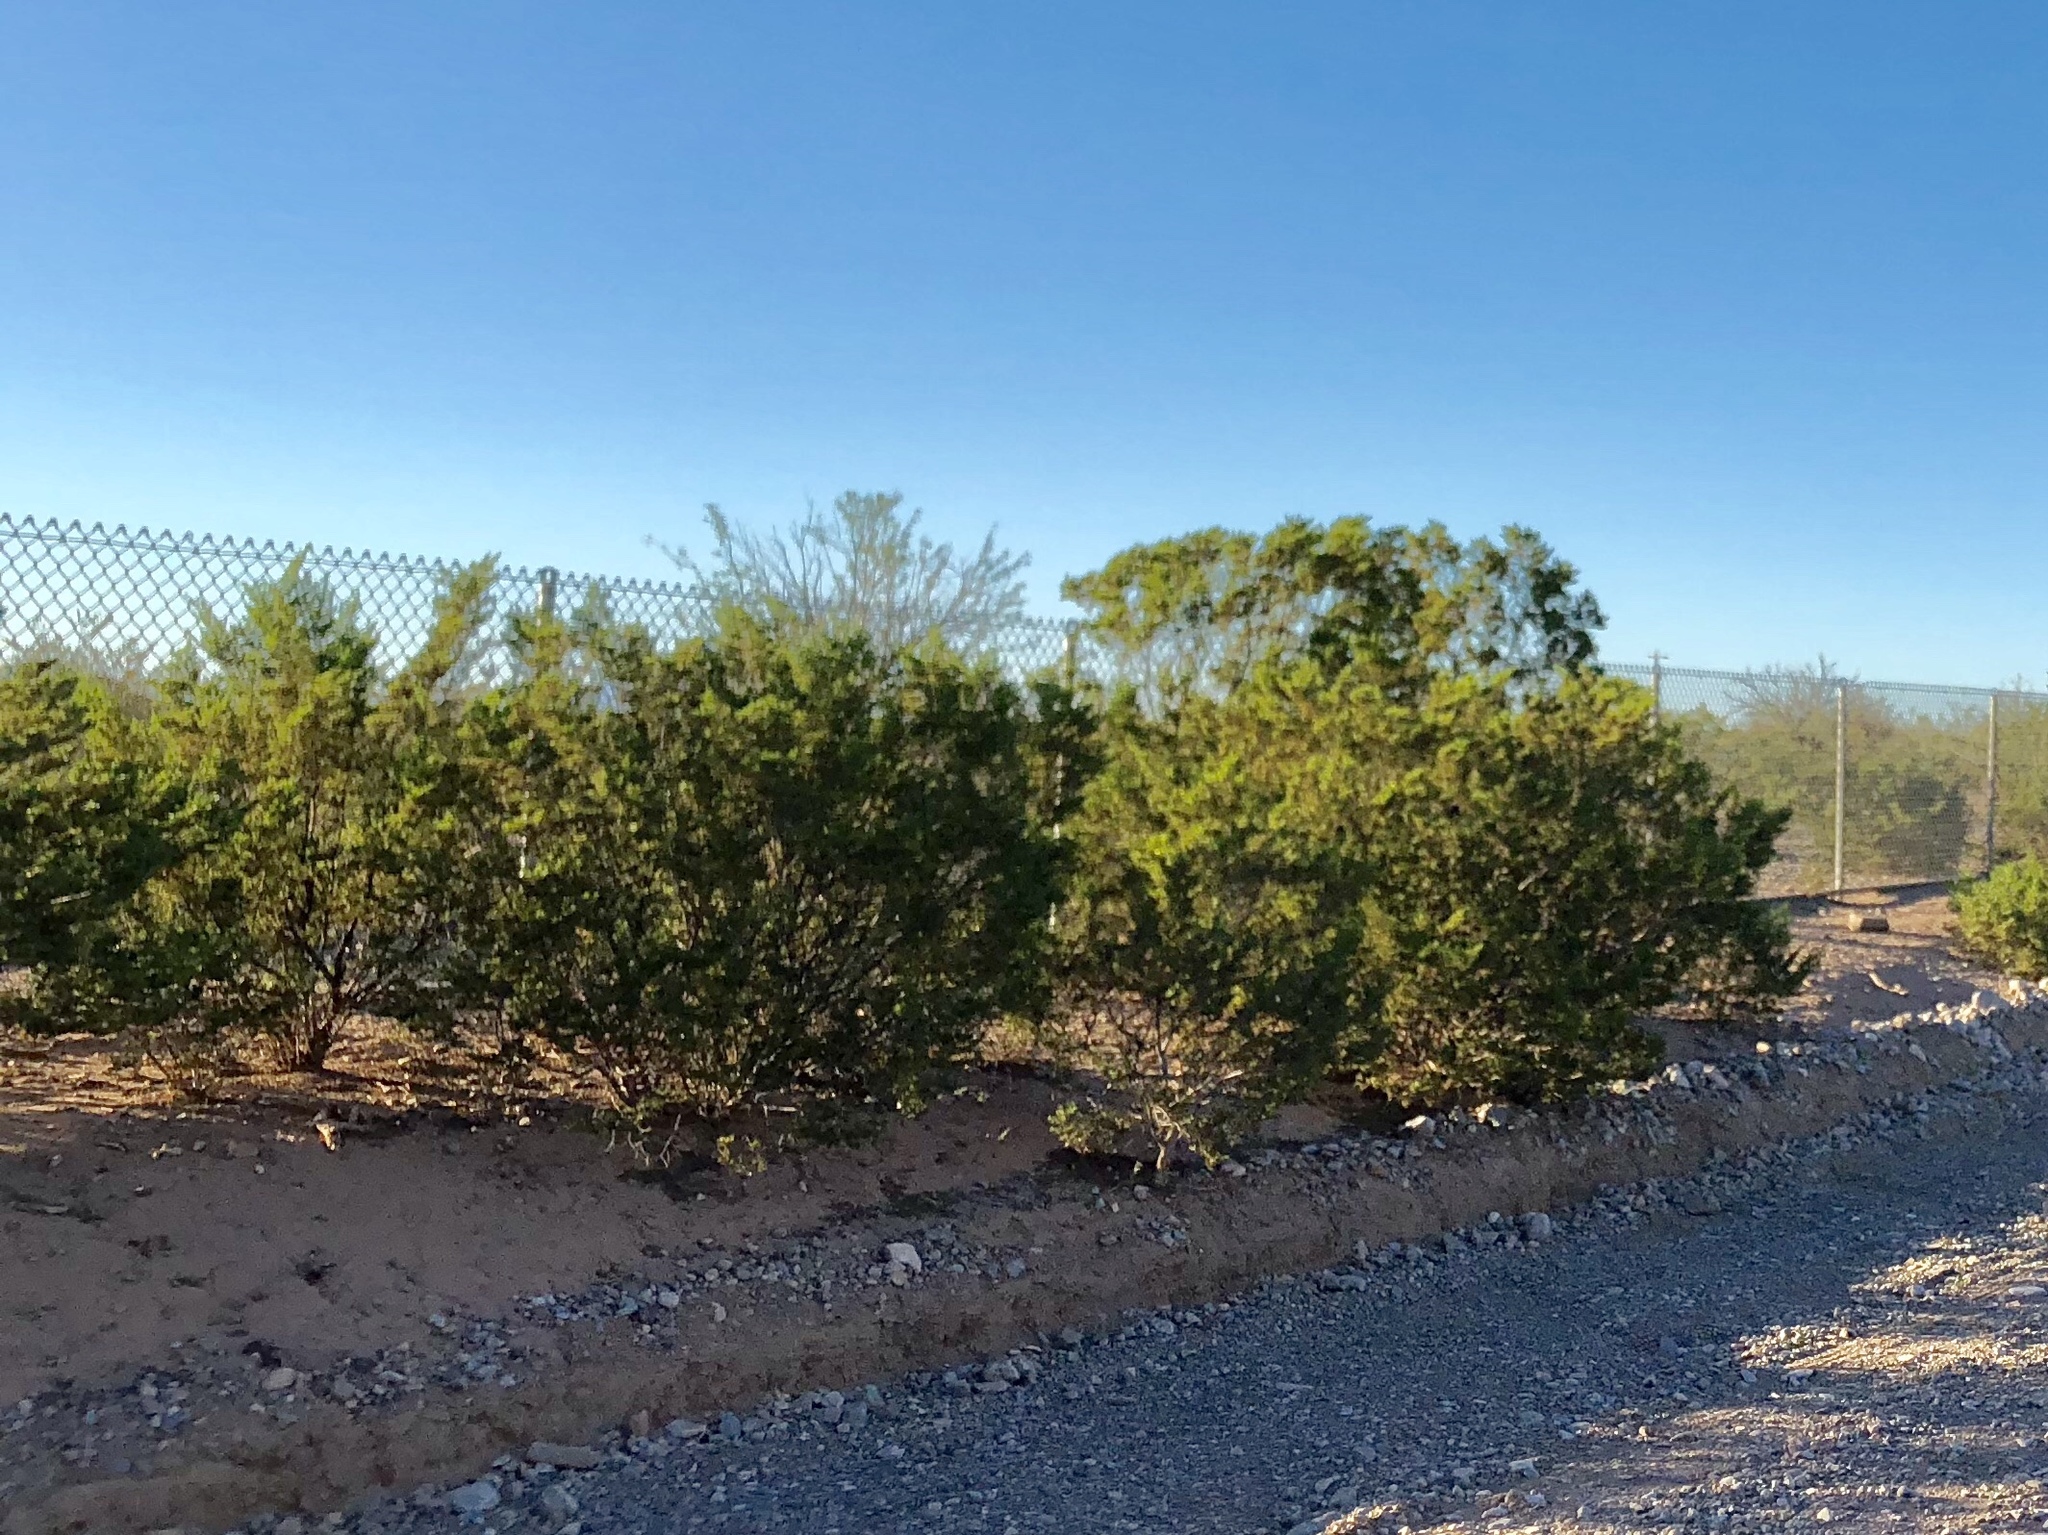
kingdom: Plantae
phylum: Tracheophyta
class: Magnoliopsida
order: Zygophyllales
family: Zygophyllaceae
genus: Larrea
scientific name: Larrea tridentata
